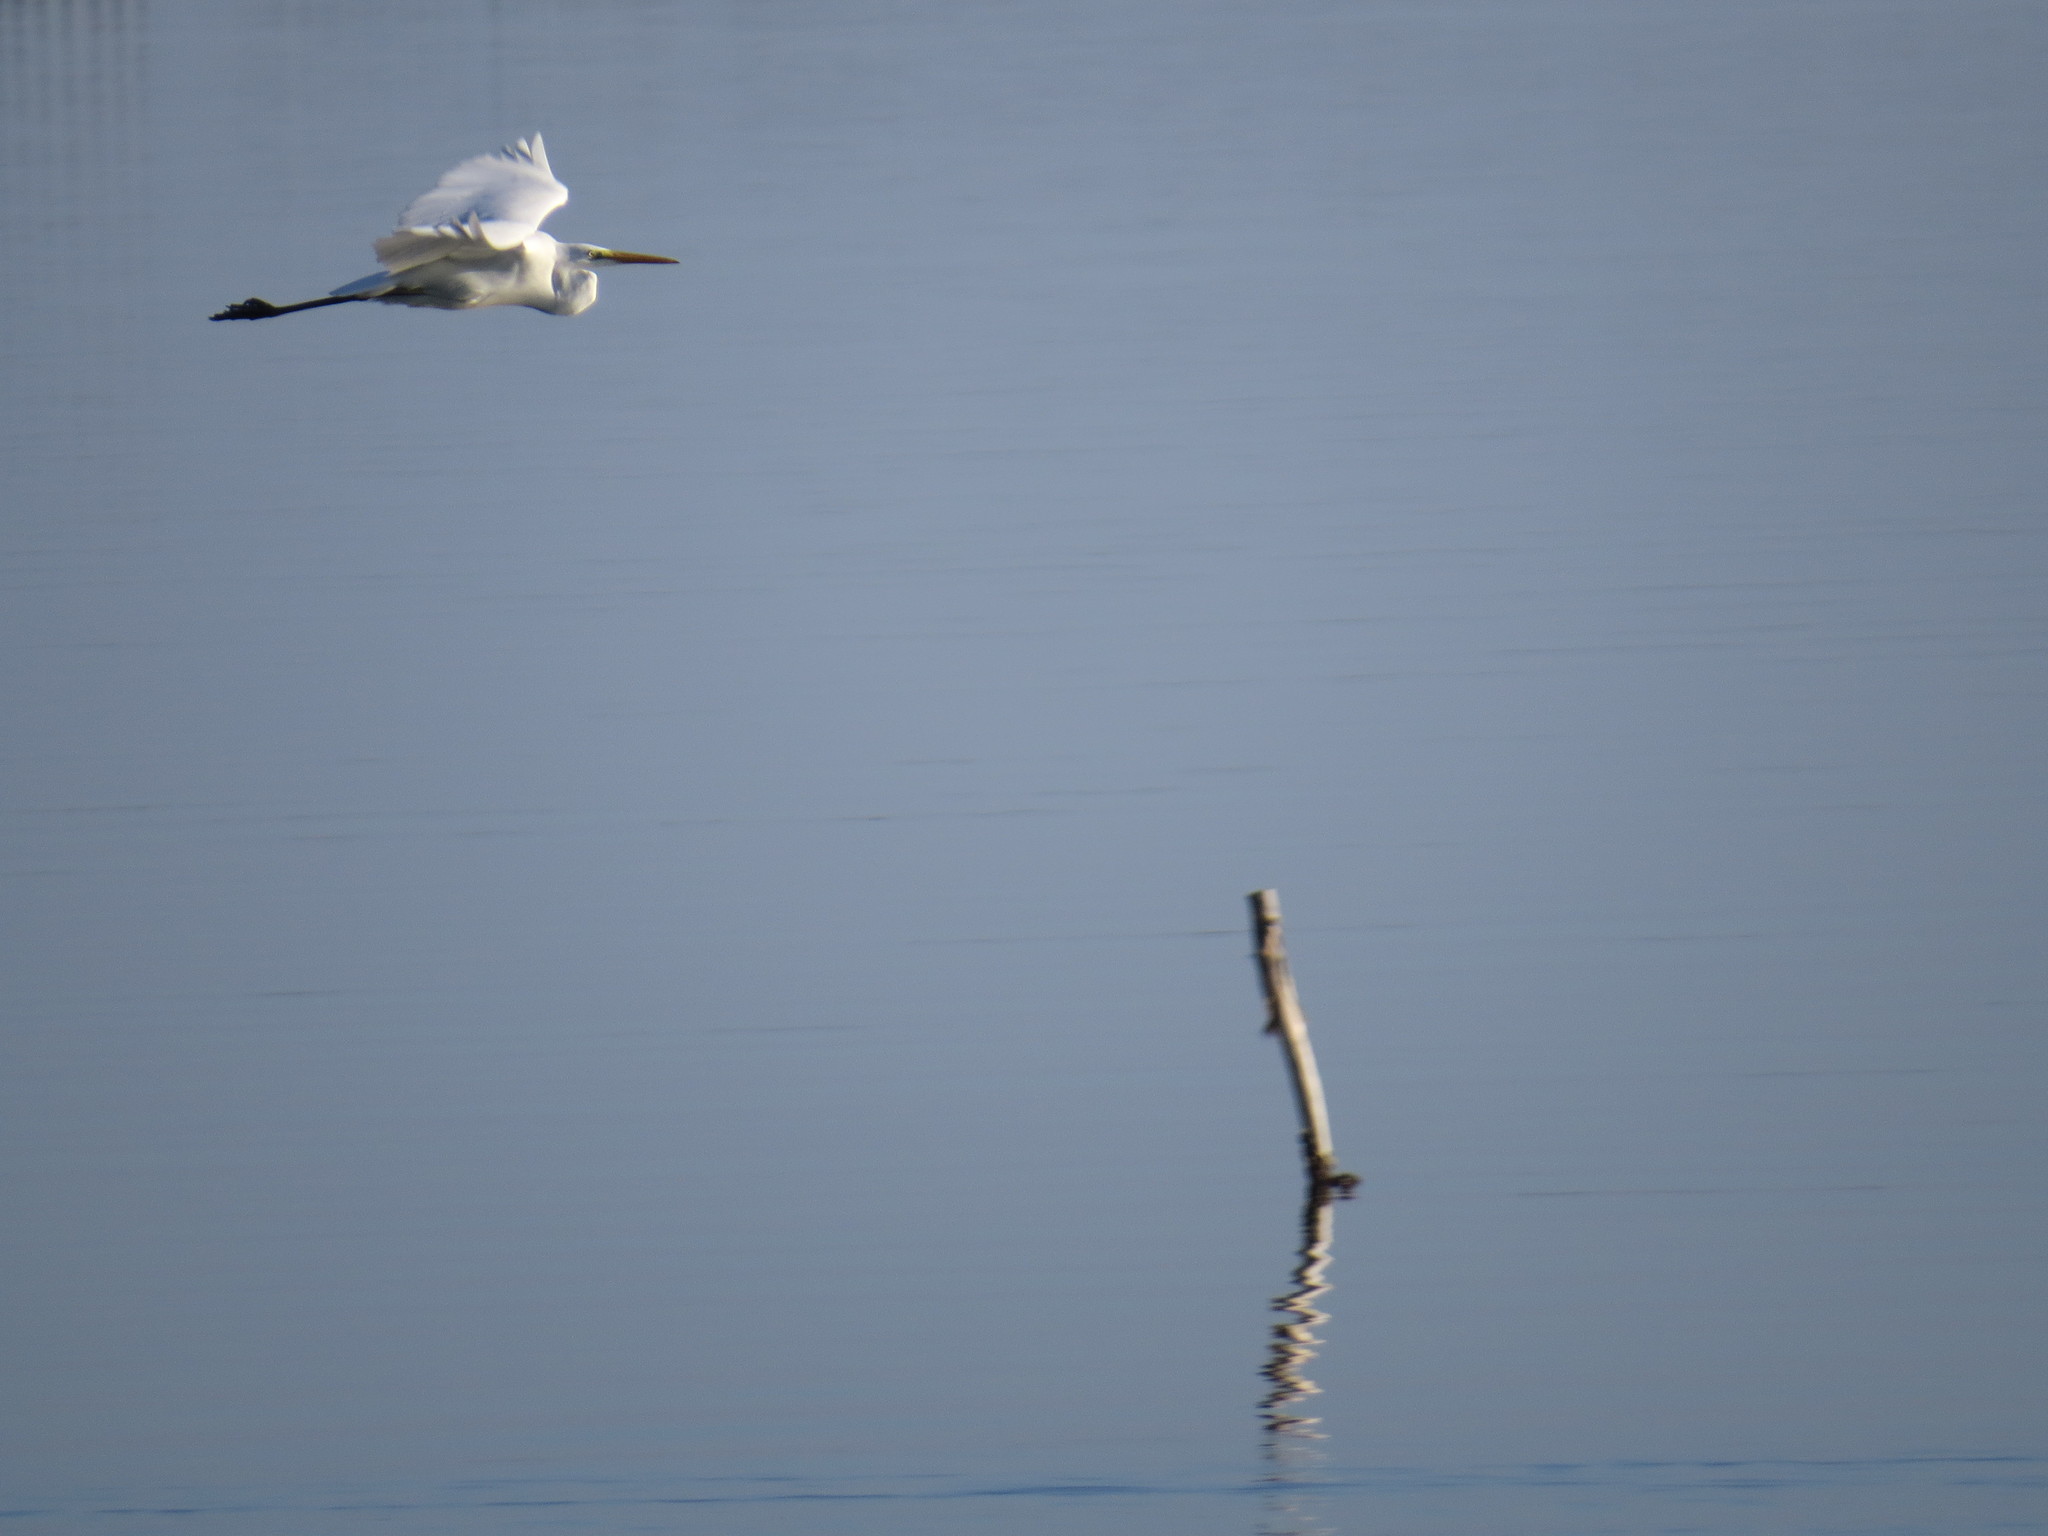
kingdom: Animalia
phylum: Chordata
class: Aves
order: Pelecaniformes
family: Ardeidae
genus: Ardea
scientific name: Ardea alba
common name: Great egret
